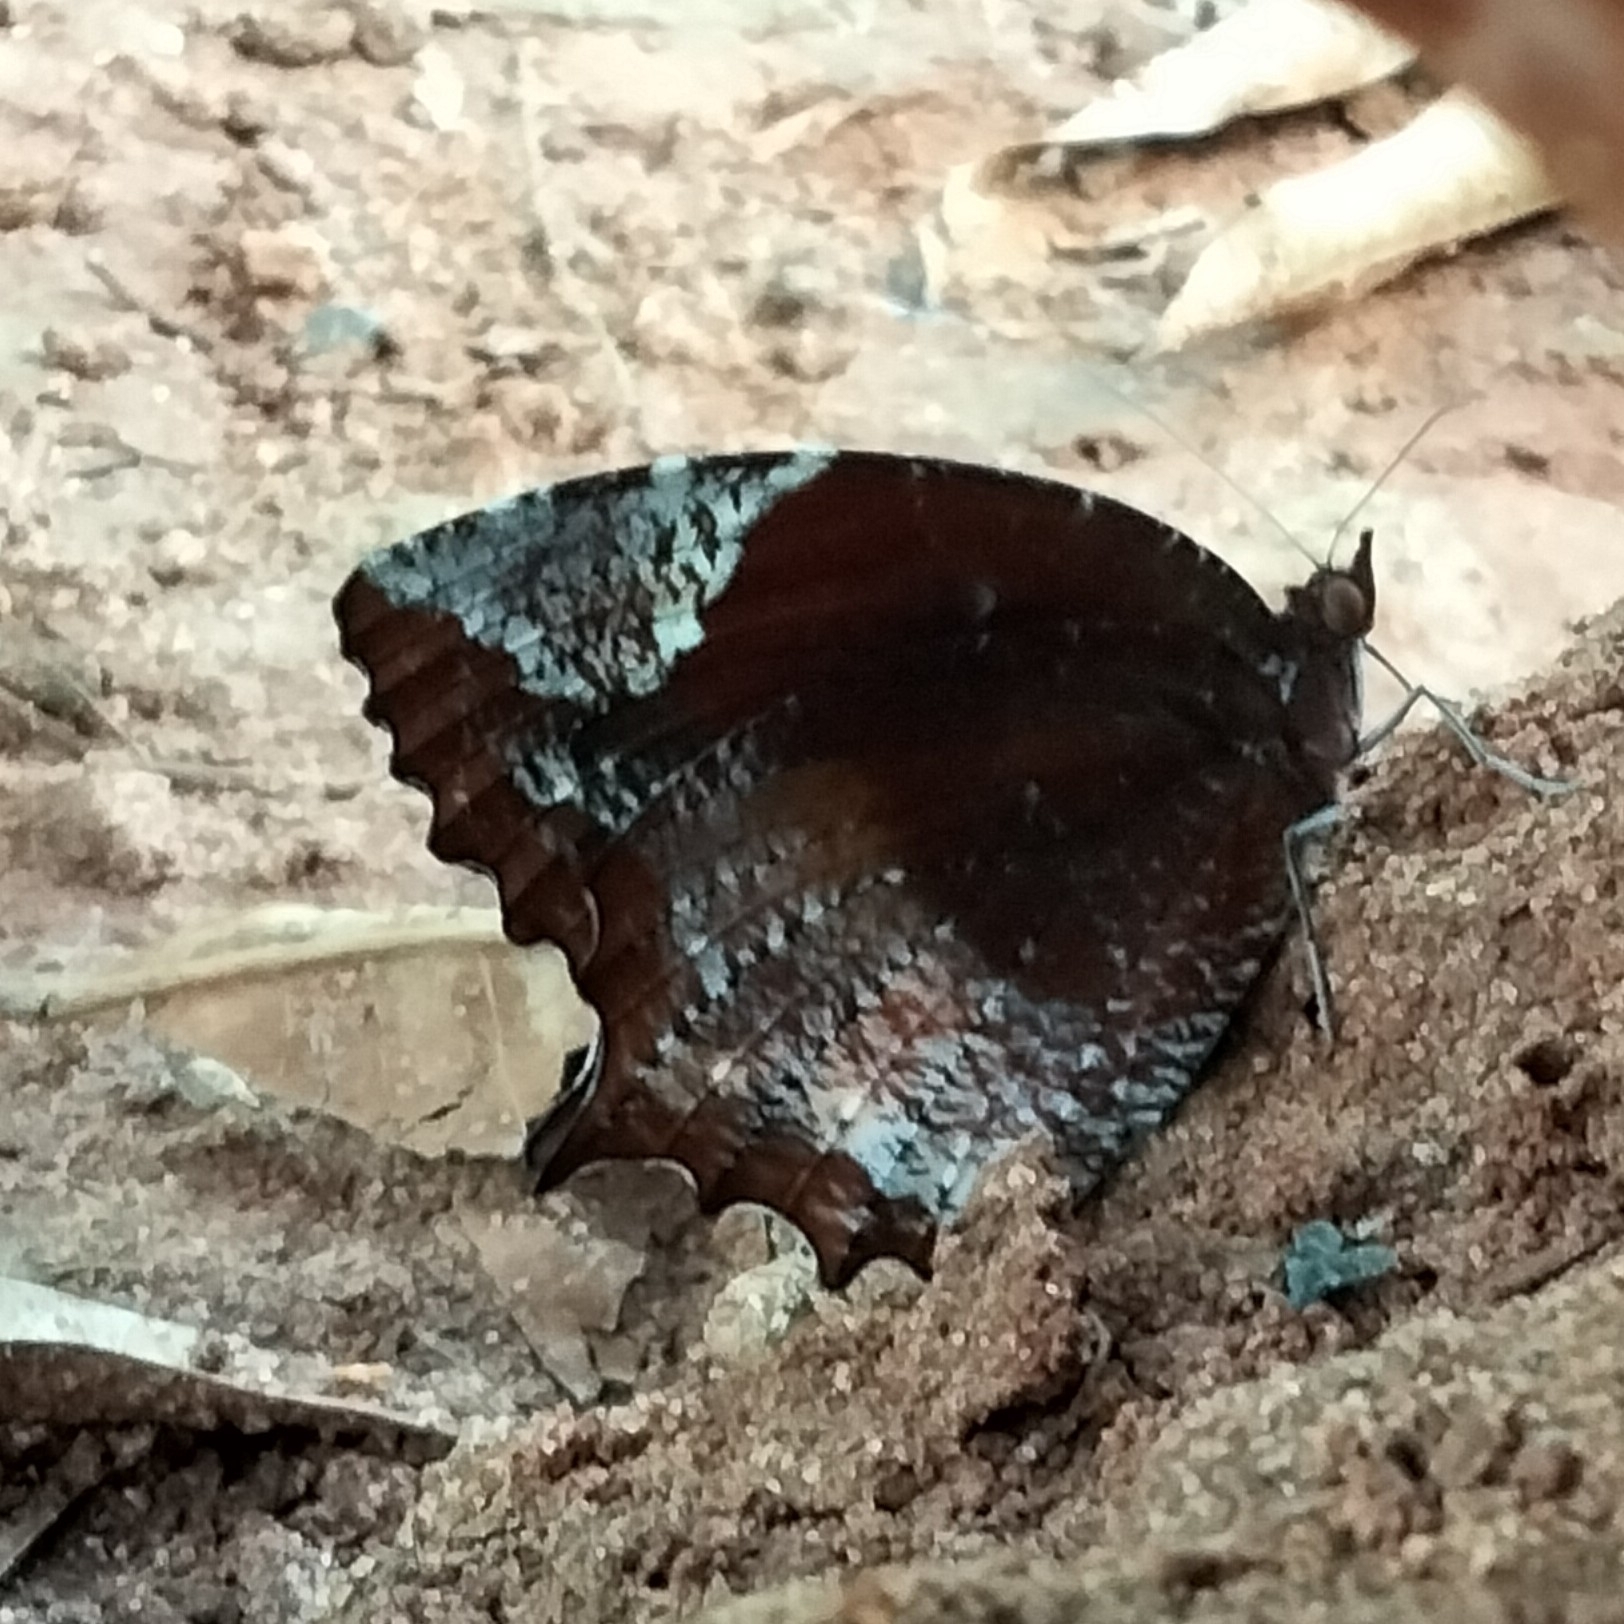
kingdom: Animalia
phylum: Arthropoda
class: Insecta
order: Lepidoptera
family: Nymphalidae
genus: Elymnias
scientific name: Elymnias caudata
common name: Tailed palmfly
